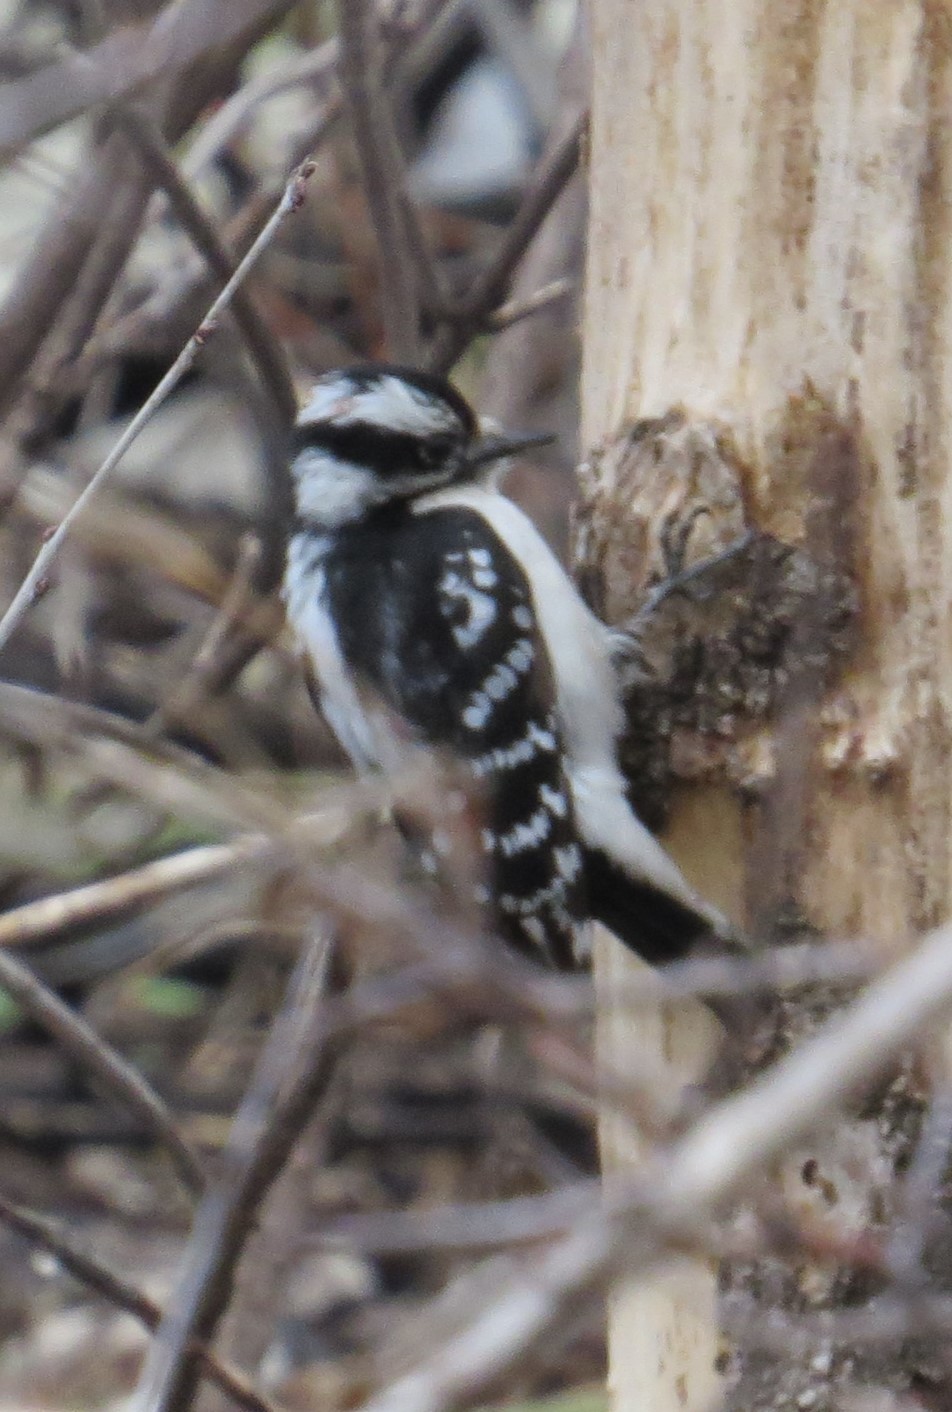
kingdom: Animalia
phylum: Chordata
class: Aves
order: Piciformes
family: Picidae
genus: Dryobates
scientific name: Dryobates pubescens
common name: Downy woodpecker
